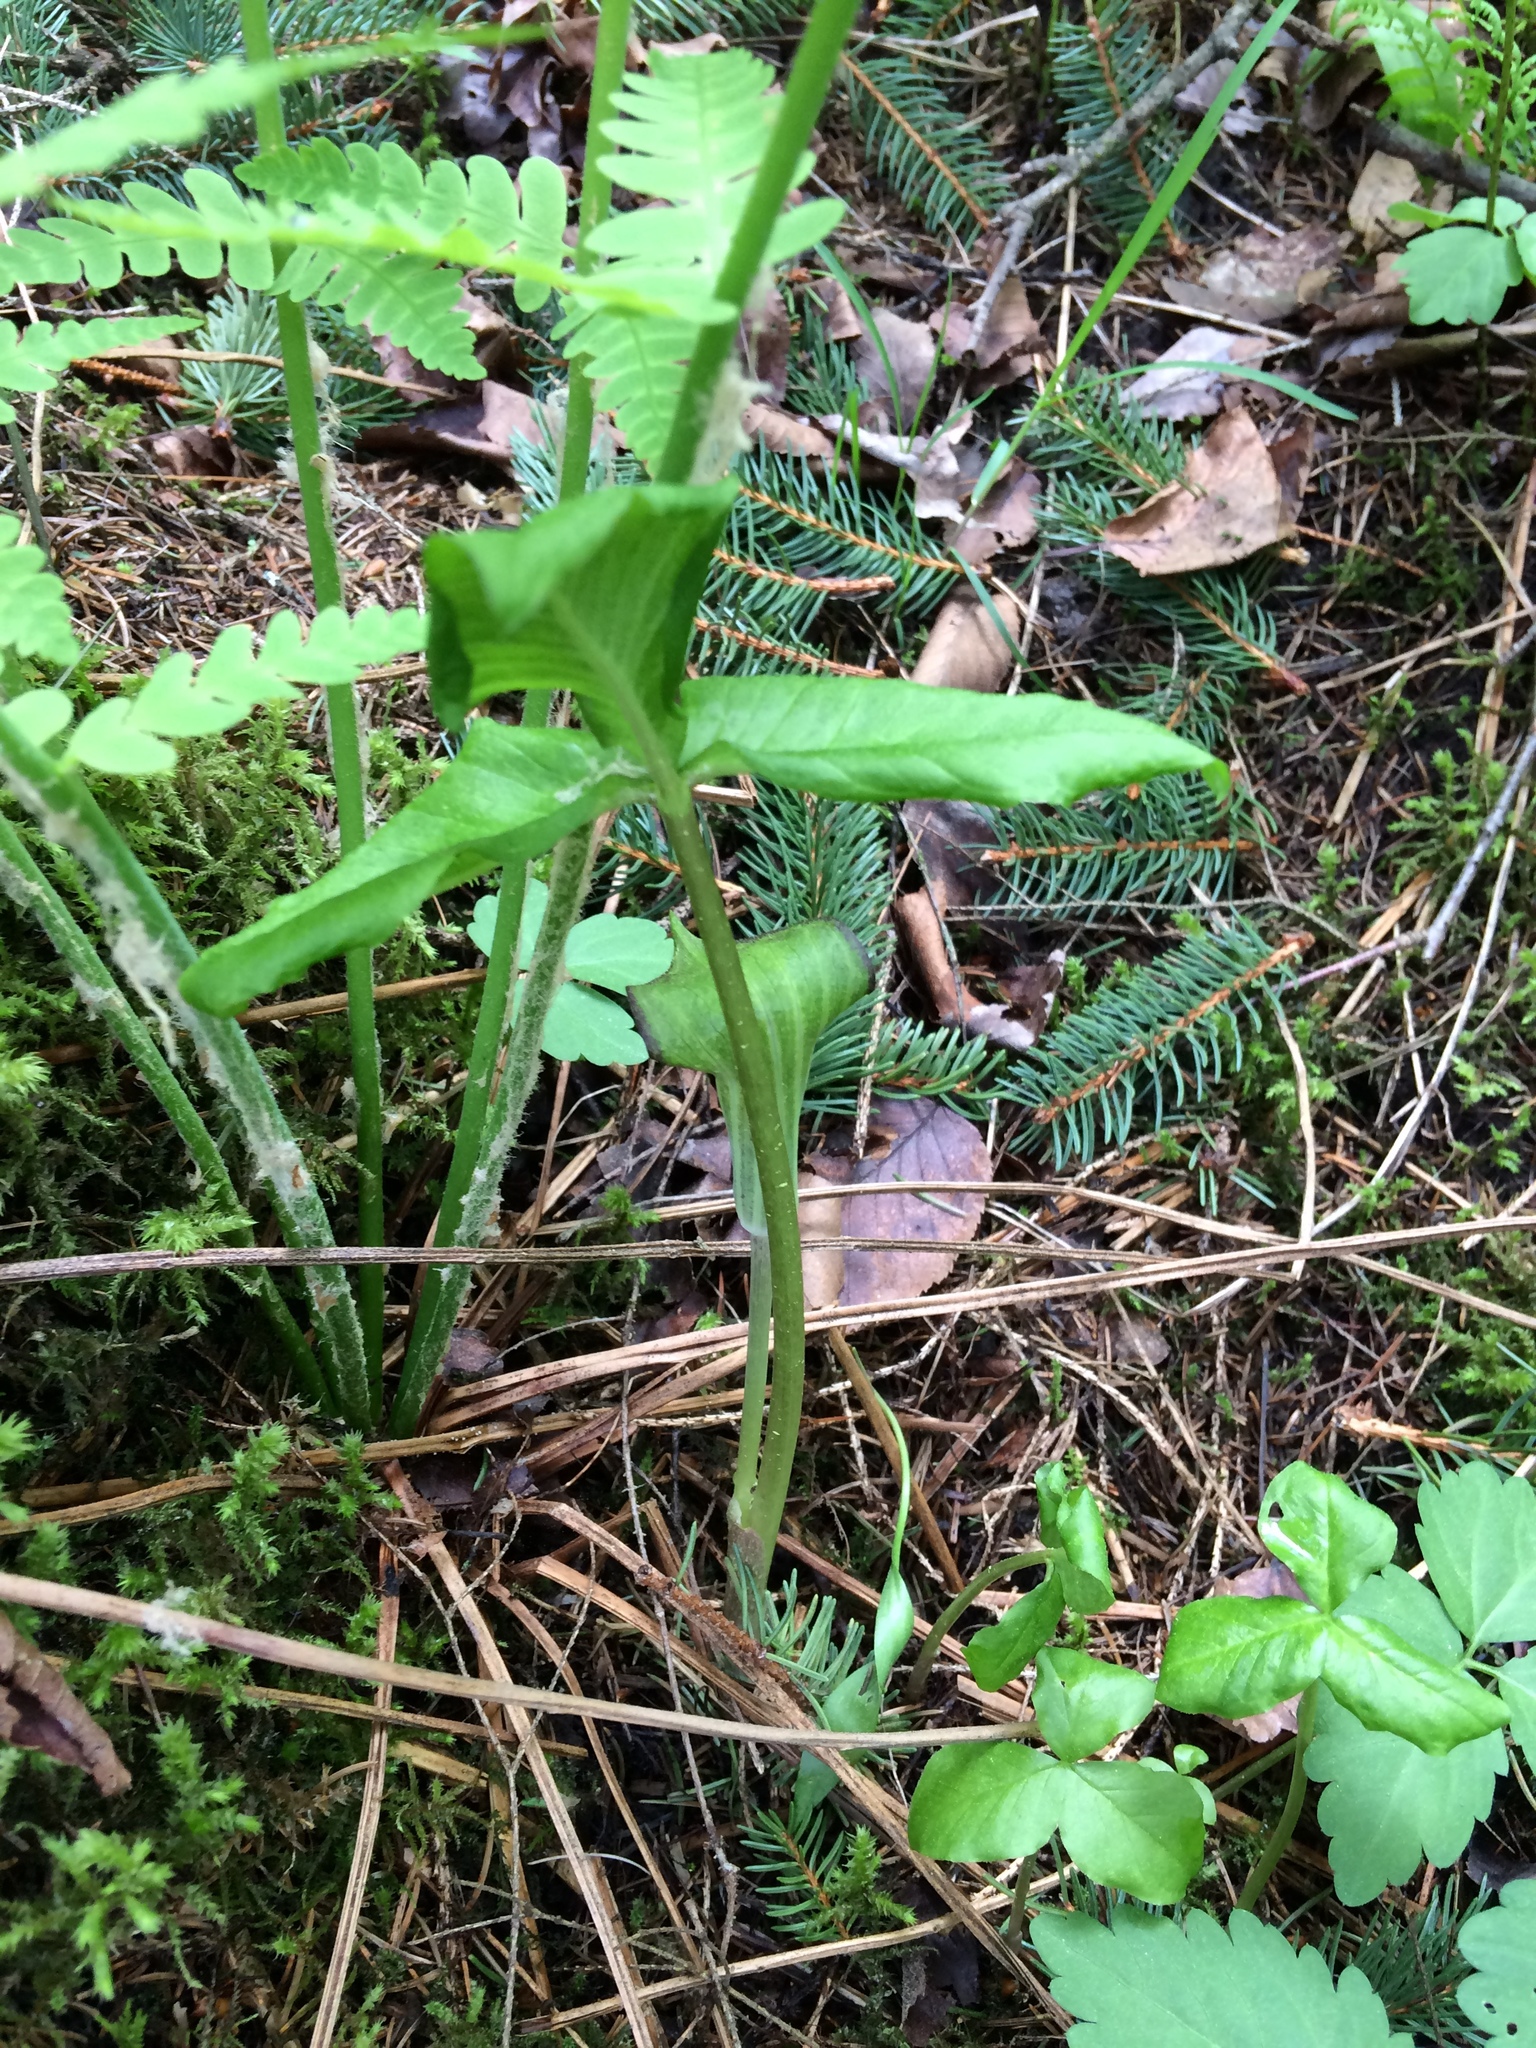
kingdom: Plantae
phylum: Tracheophyta
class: Liliopsida
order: Alismatales
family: Araceae
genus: Arisaema
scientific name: Arisaema triphyllum
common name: Jack-in-the-pulpit
